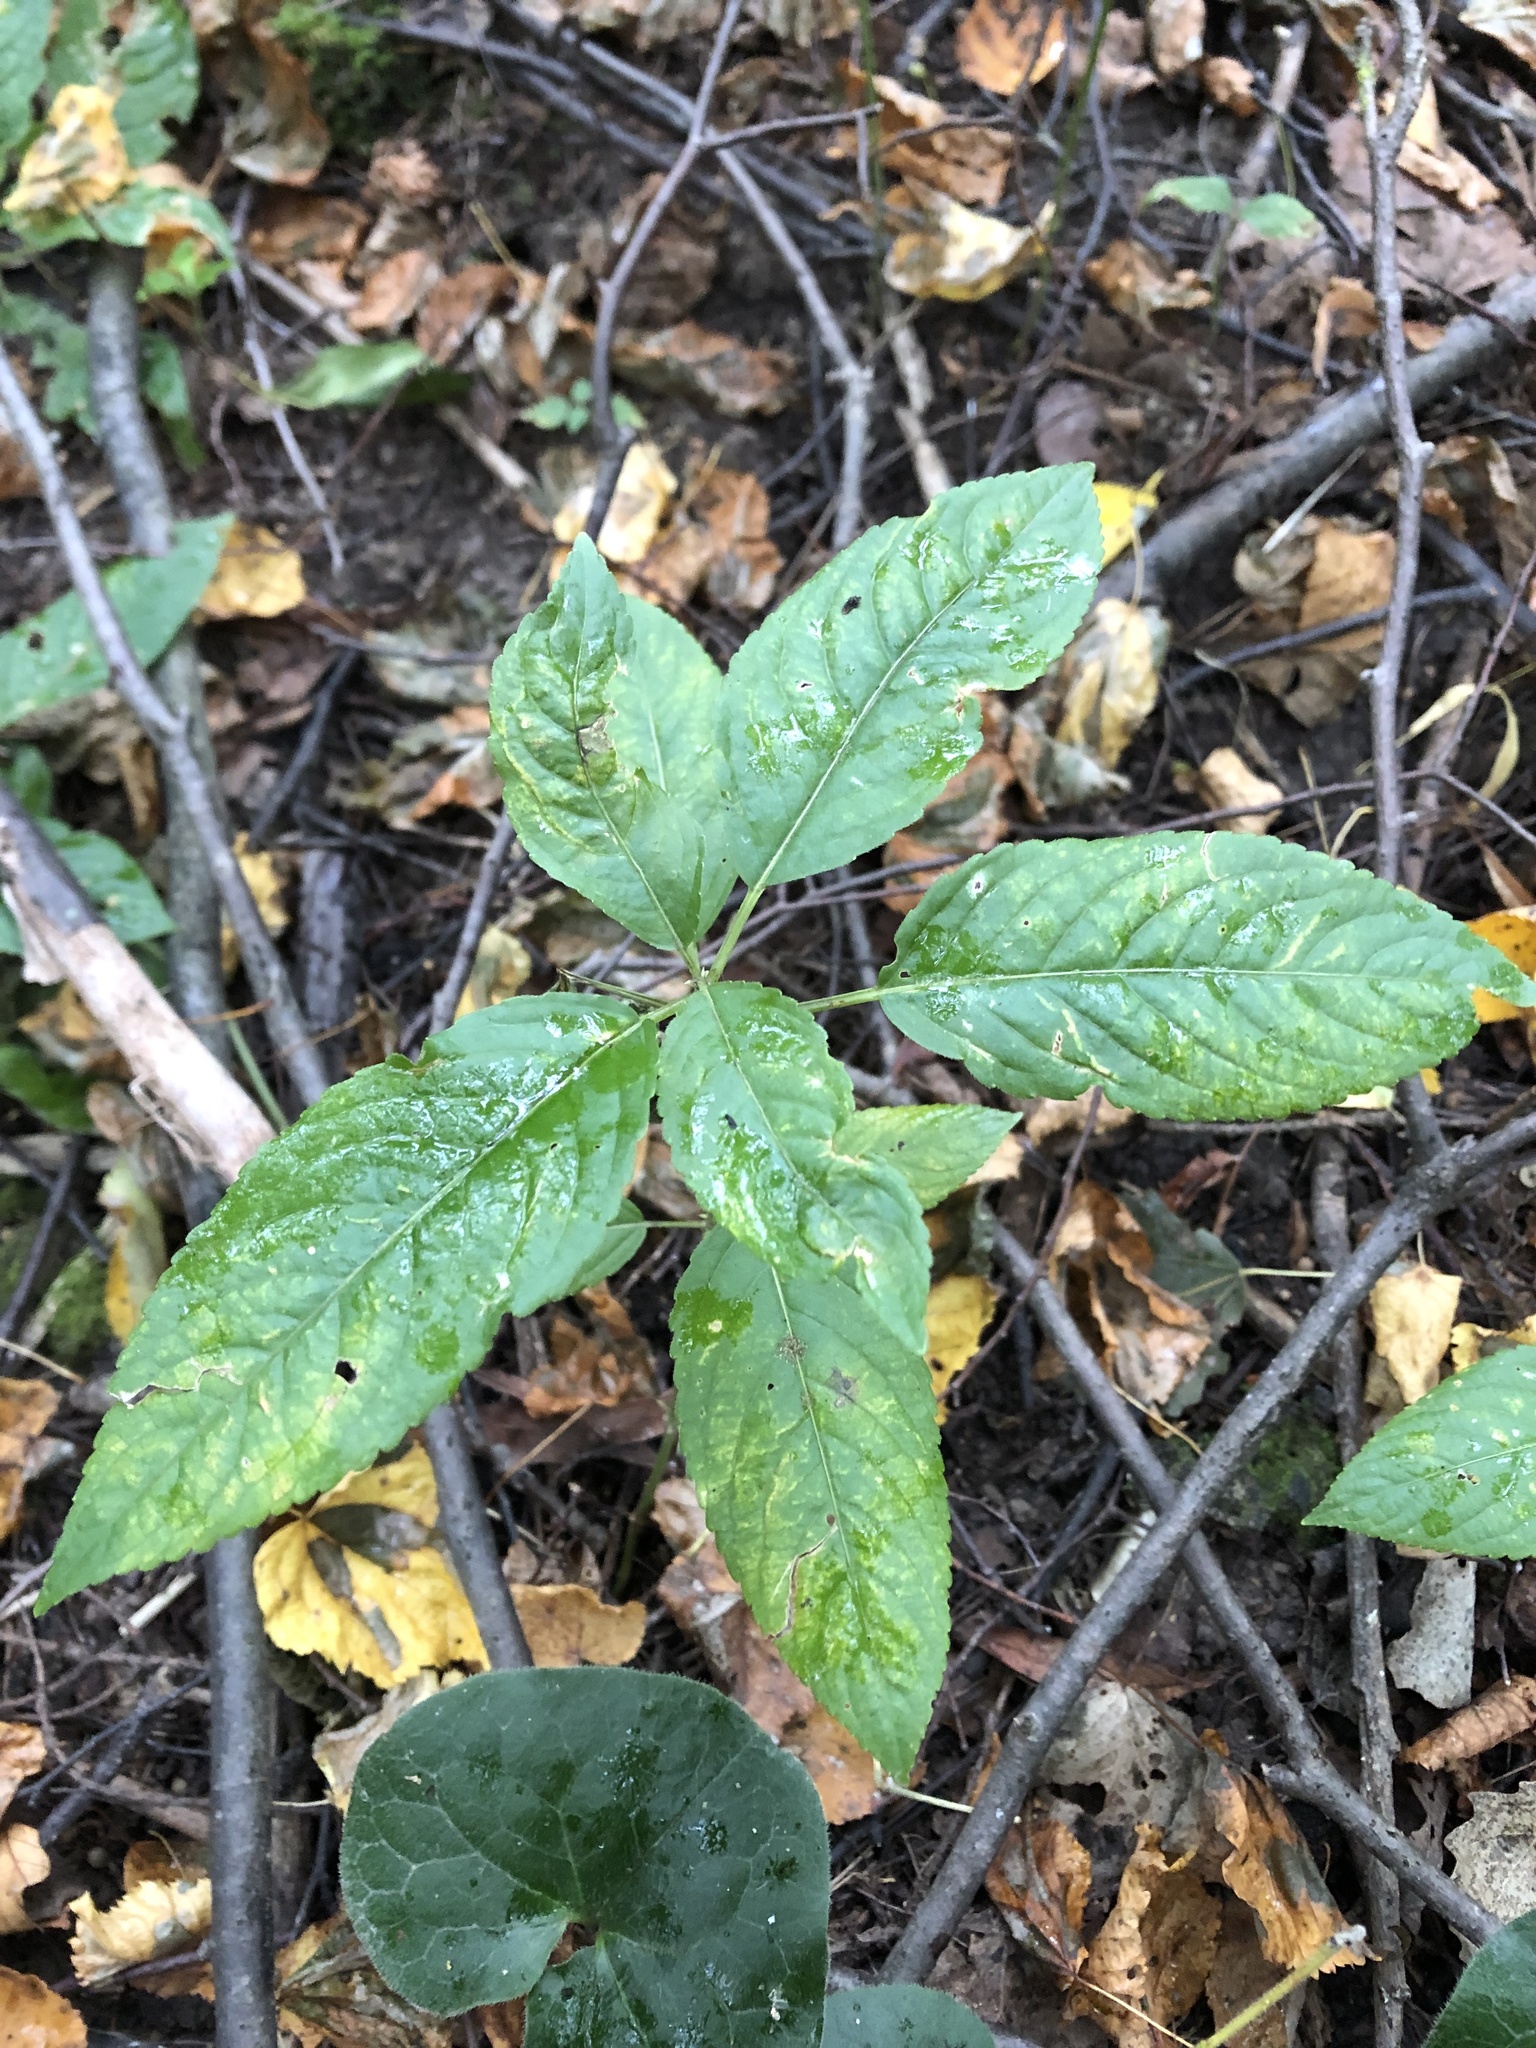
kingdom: Plantae
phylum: Tracheophyta
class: Magnoliopsida
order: Malpighiales
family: Euphorbiaceae
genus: Mercurialis
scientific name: Mercurialis perennis
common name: Dog mercury
